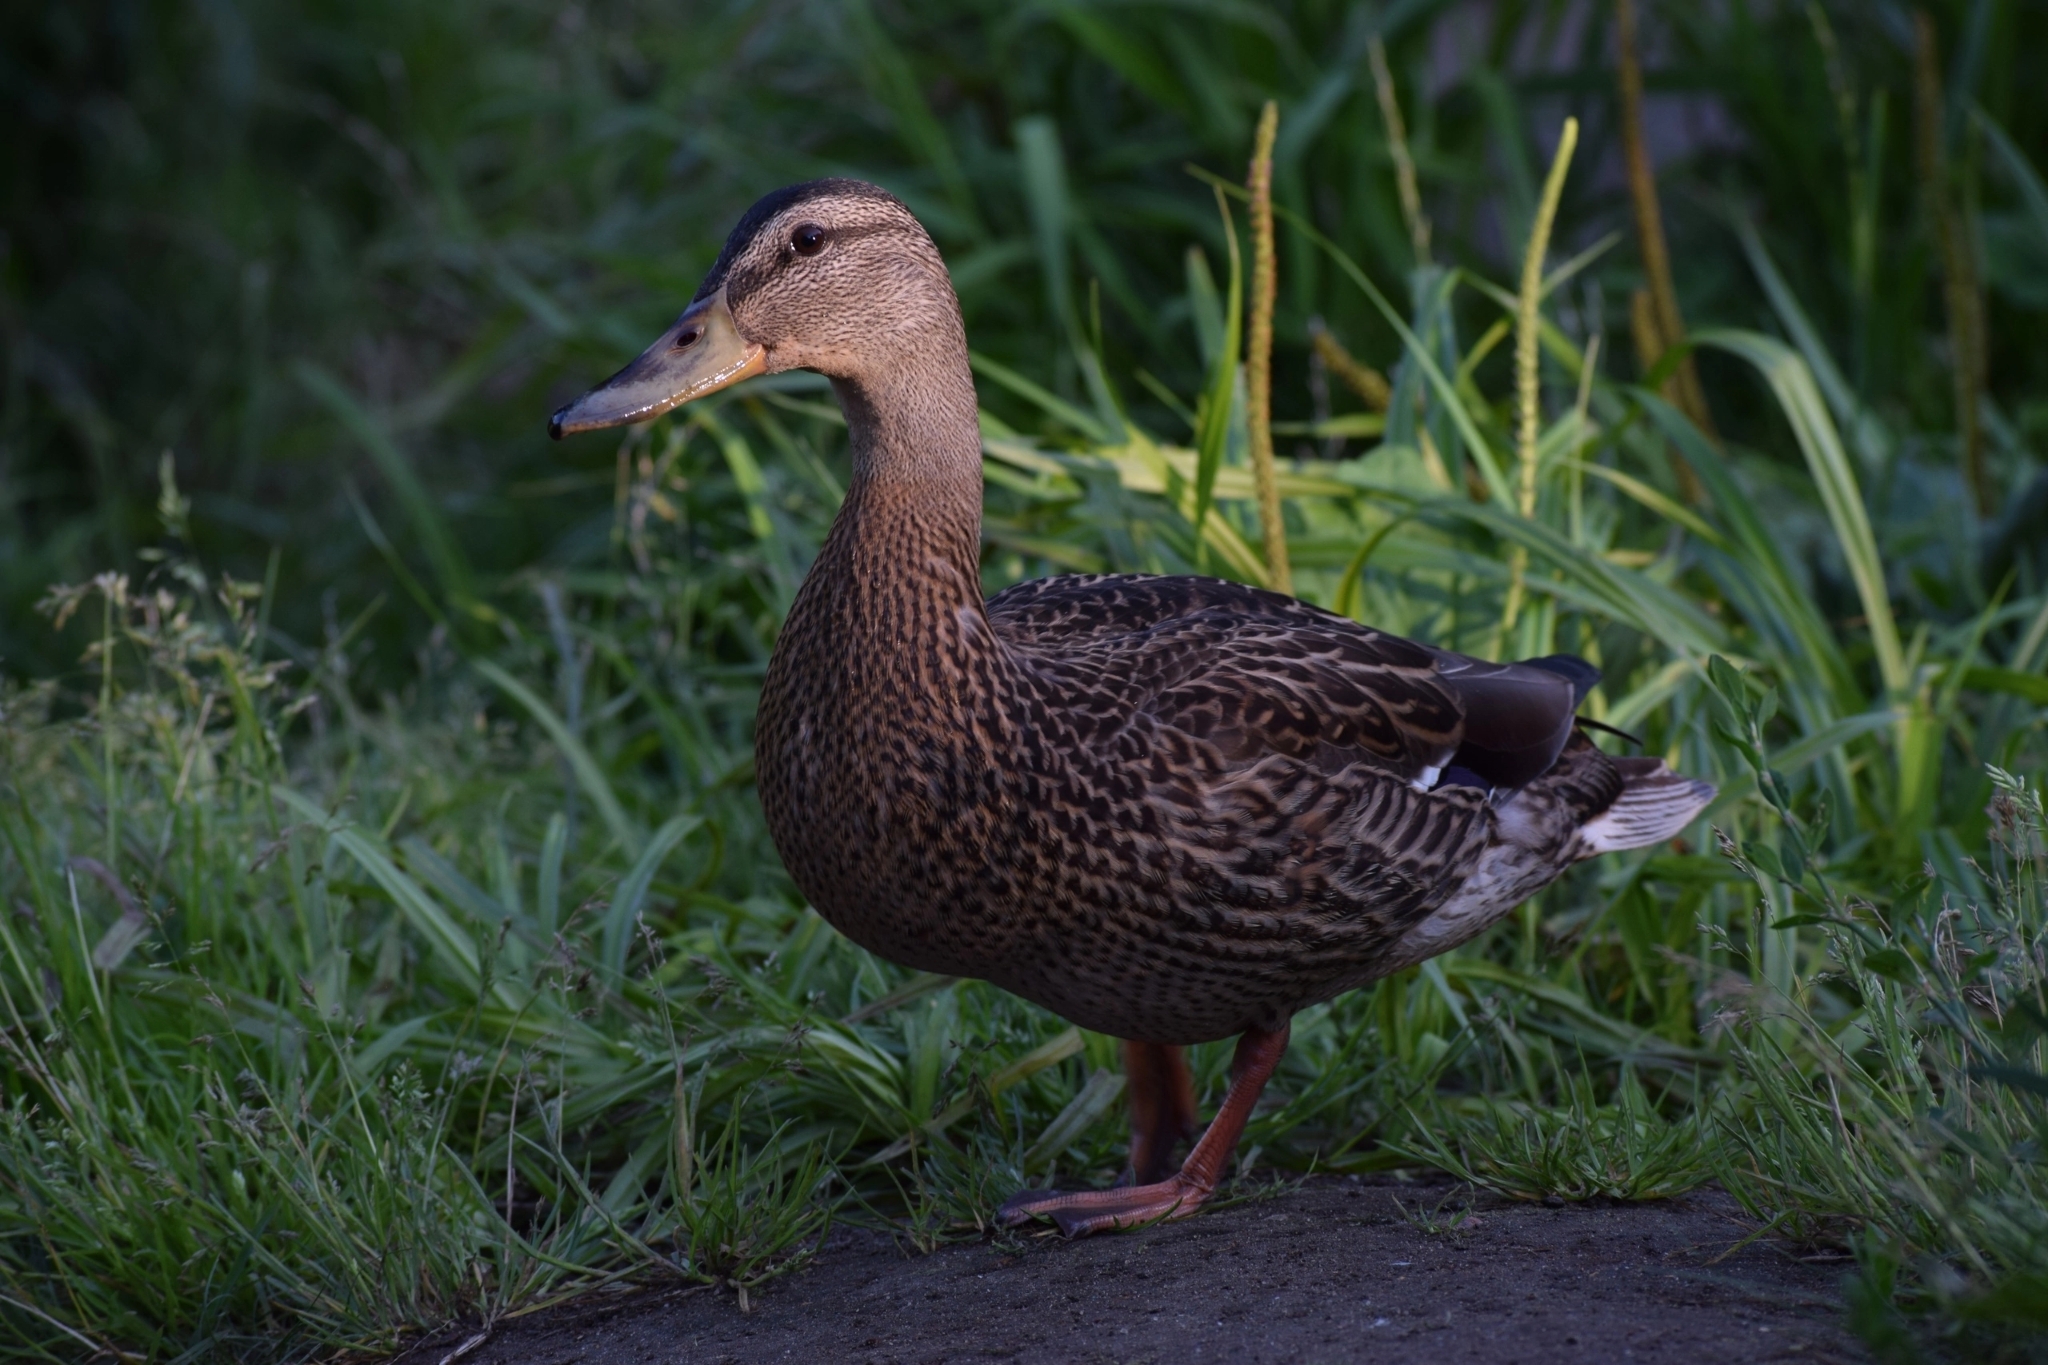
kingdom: Animalia
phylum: Chordata
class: Aves
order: Anseriformes
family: Anatidae
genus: Anas
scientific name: Anas platyrhynchos
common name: Mallard
